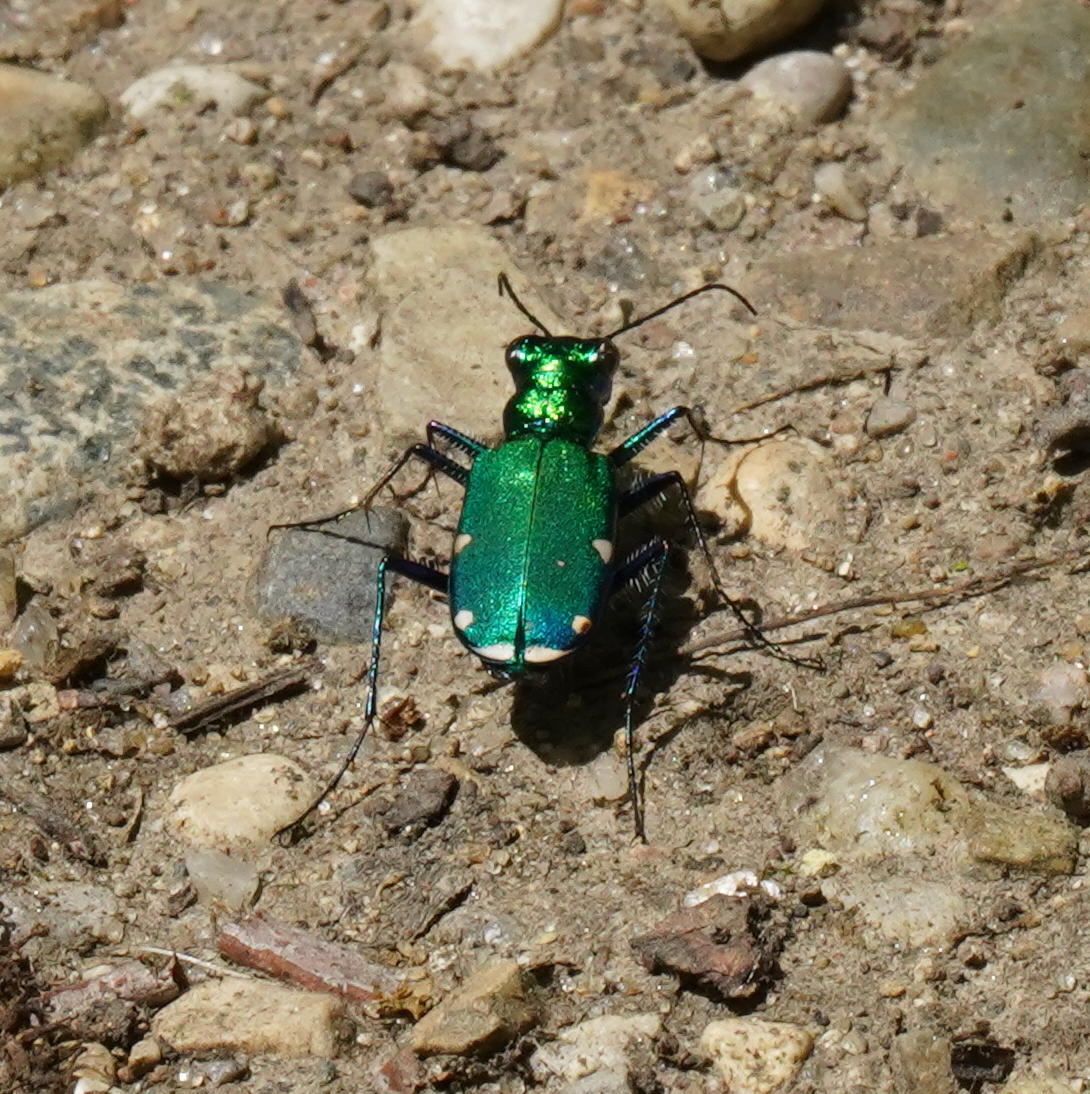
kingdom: Animalia
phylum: Arthropoda
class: Insecta
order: Coleoptera
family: Carabidae
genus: Cicindela
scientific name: Cicindela sexguttata
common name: Six-spotted tiger beetle
